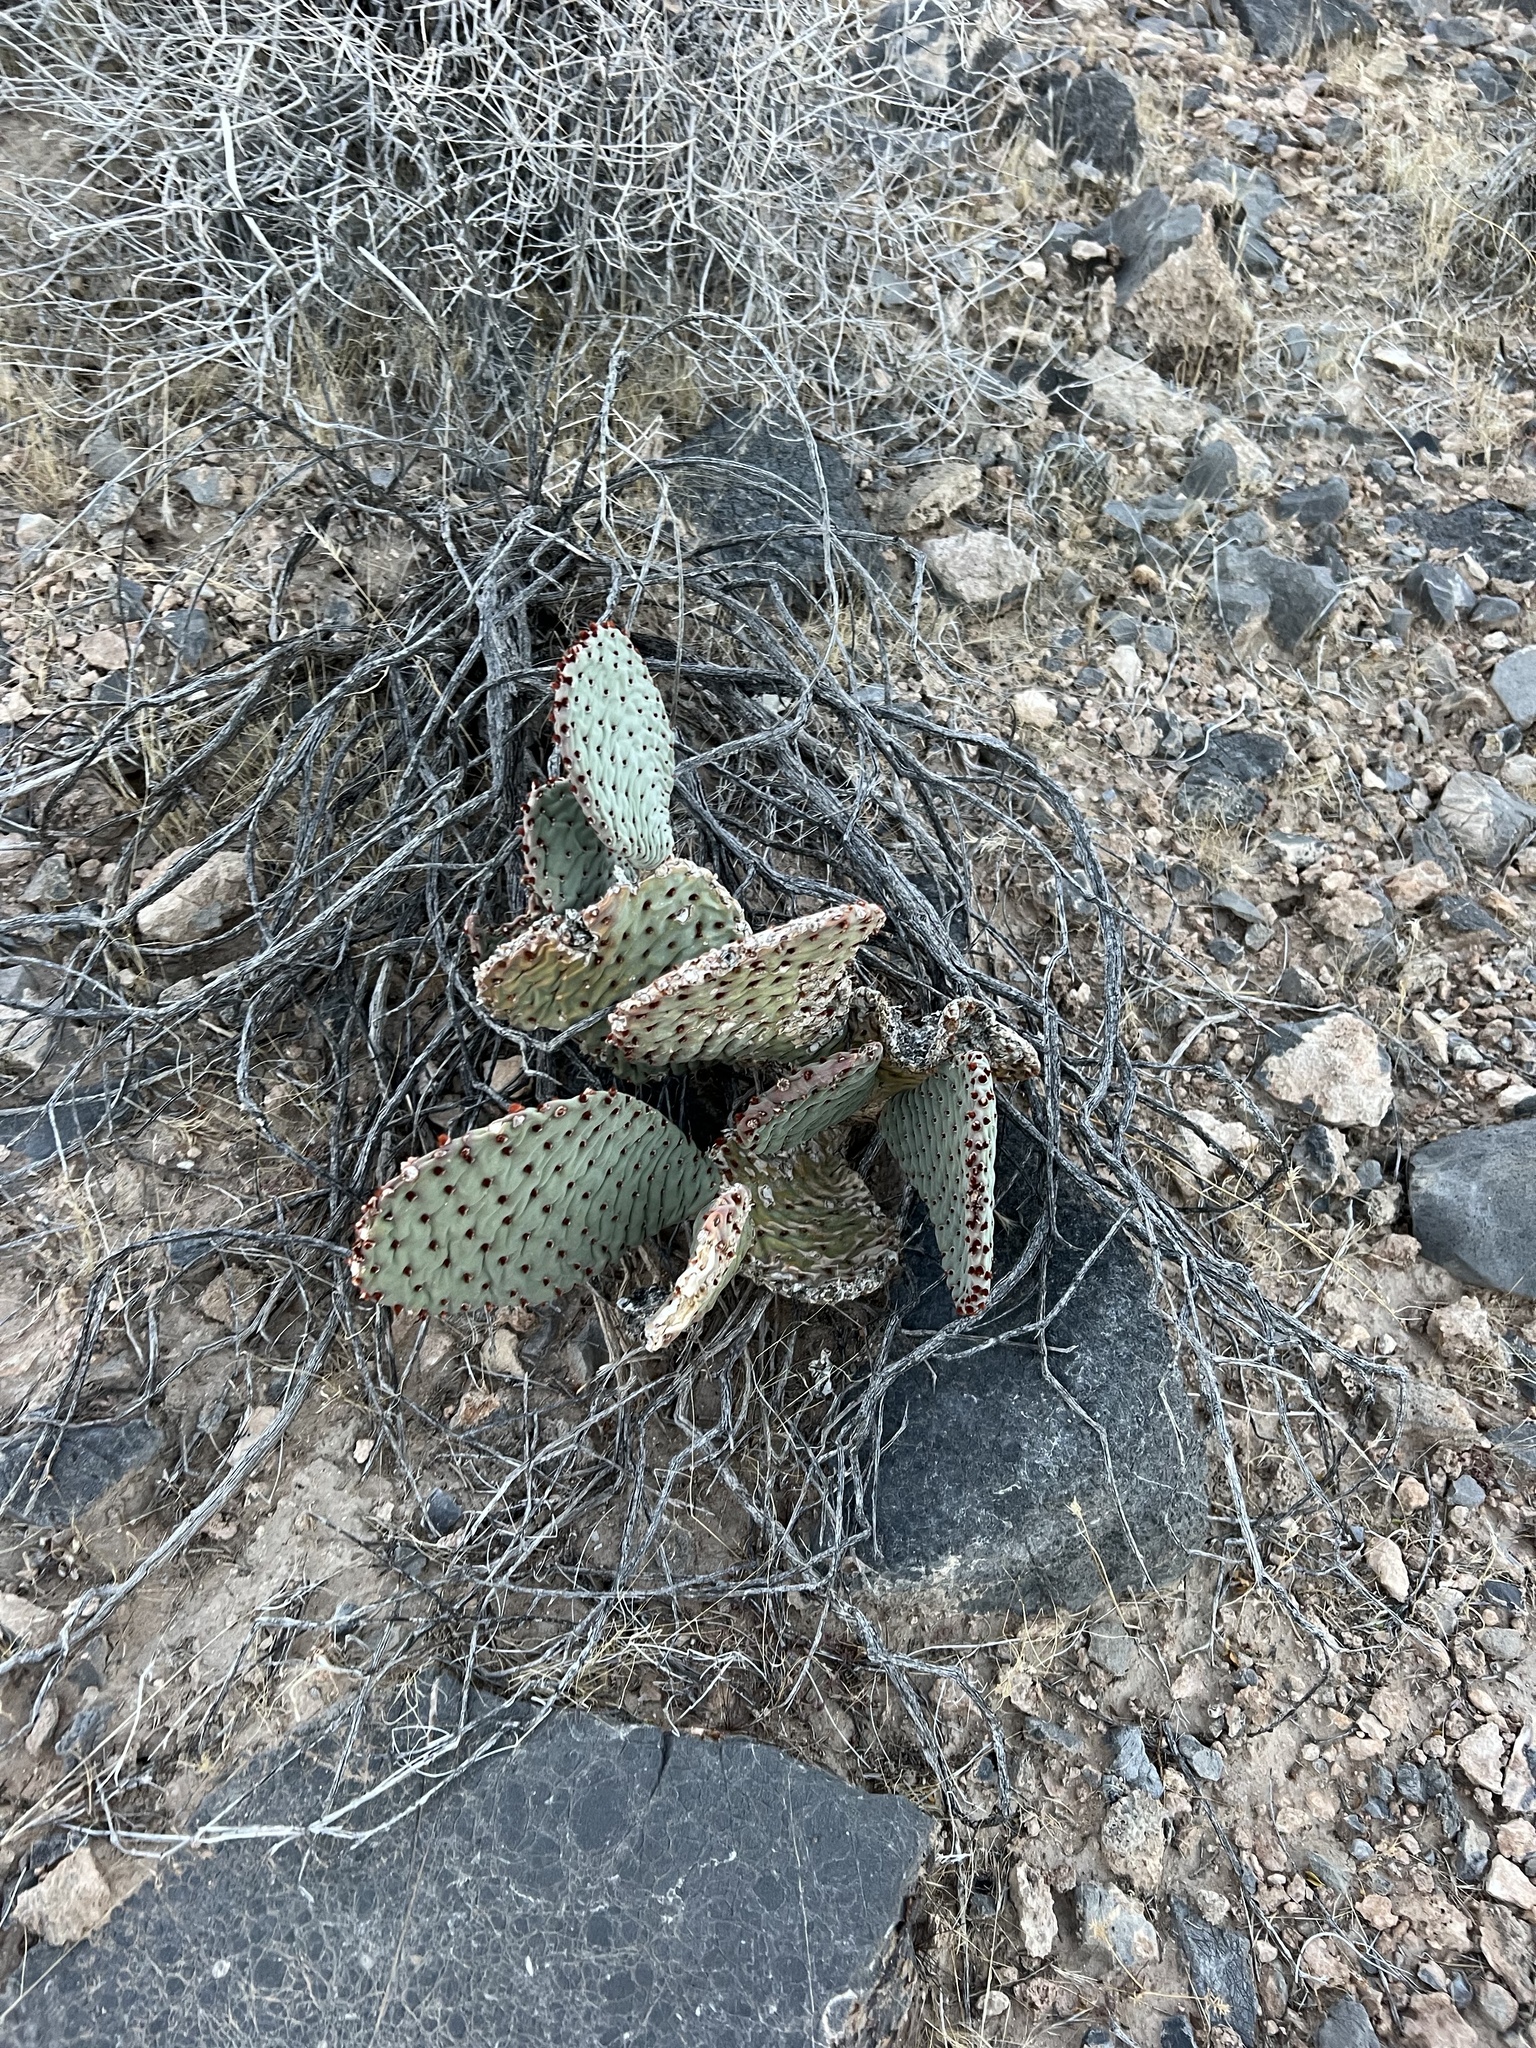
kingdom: Plantae
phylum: Tracheophyta
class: Magnoliopsida
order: Caryophyllales
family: Cactaceae
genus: Opuntia
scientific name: Opuntia basilaris
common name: Beavertail prickly-pear
